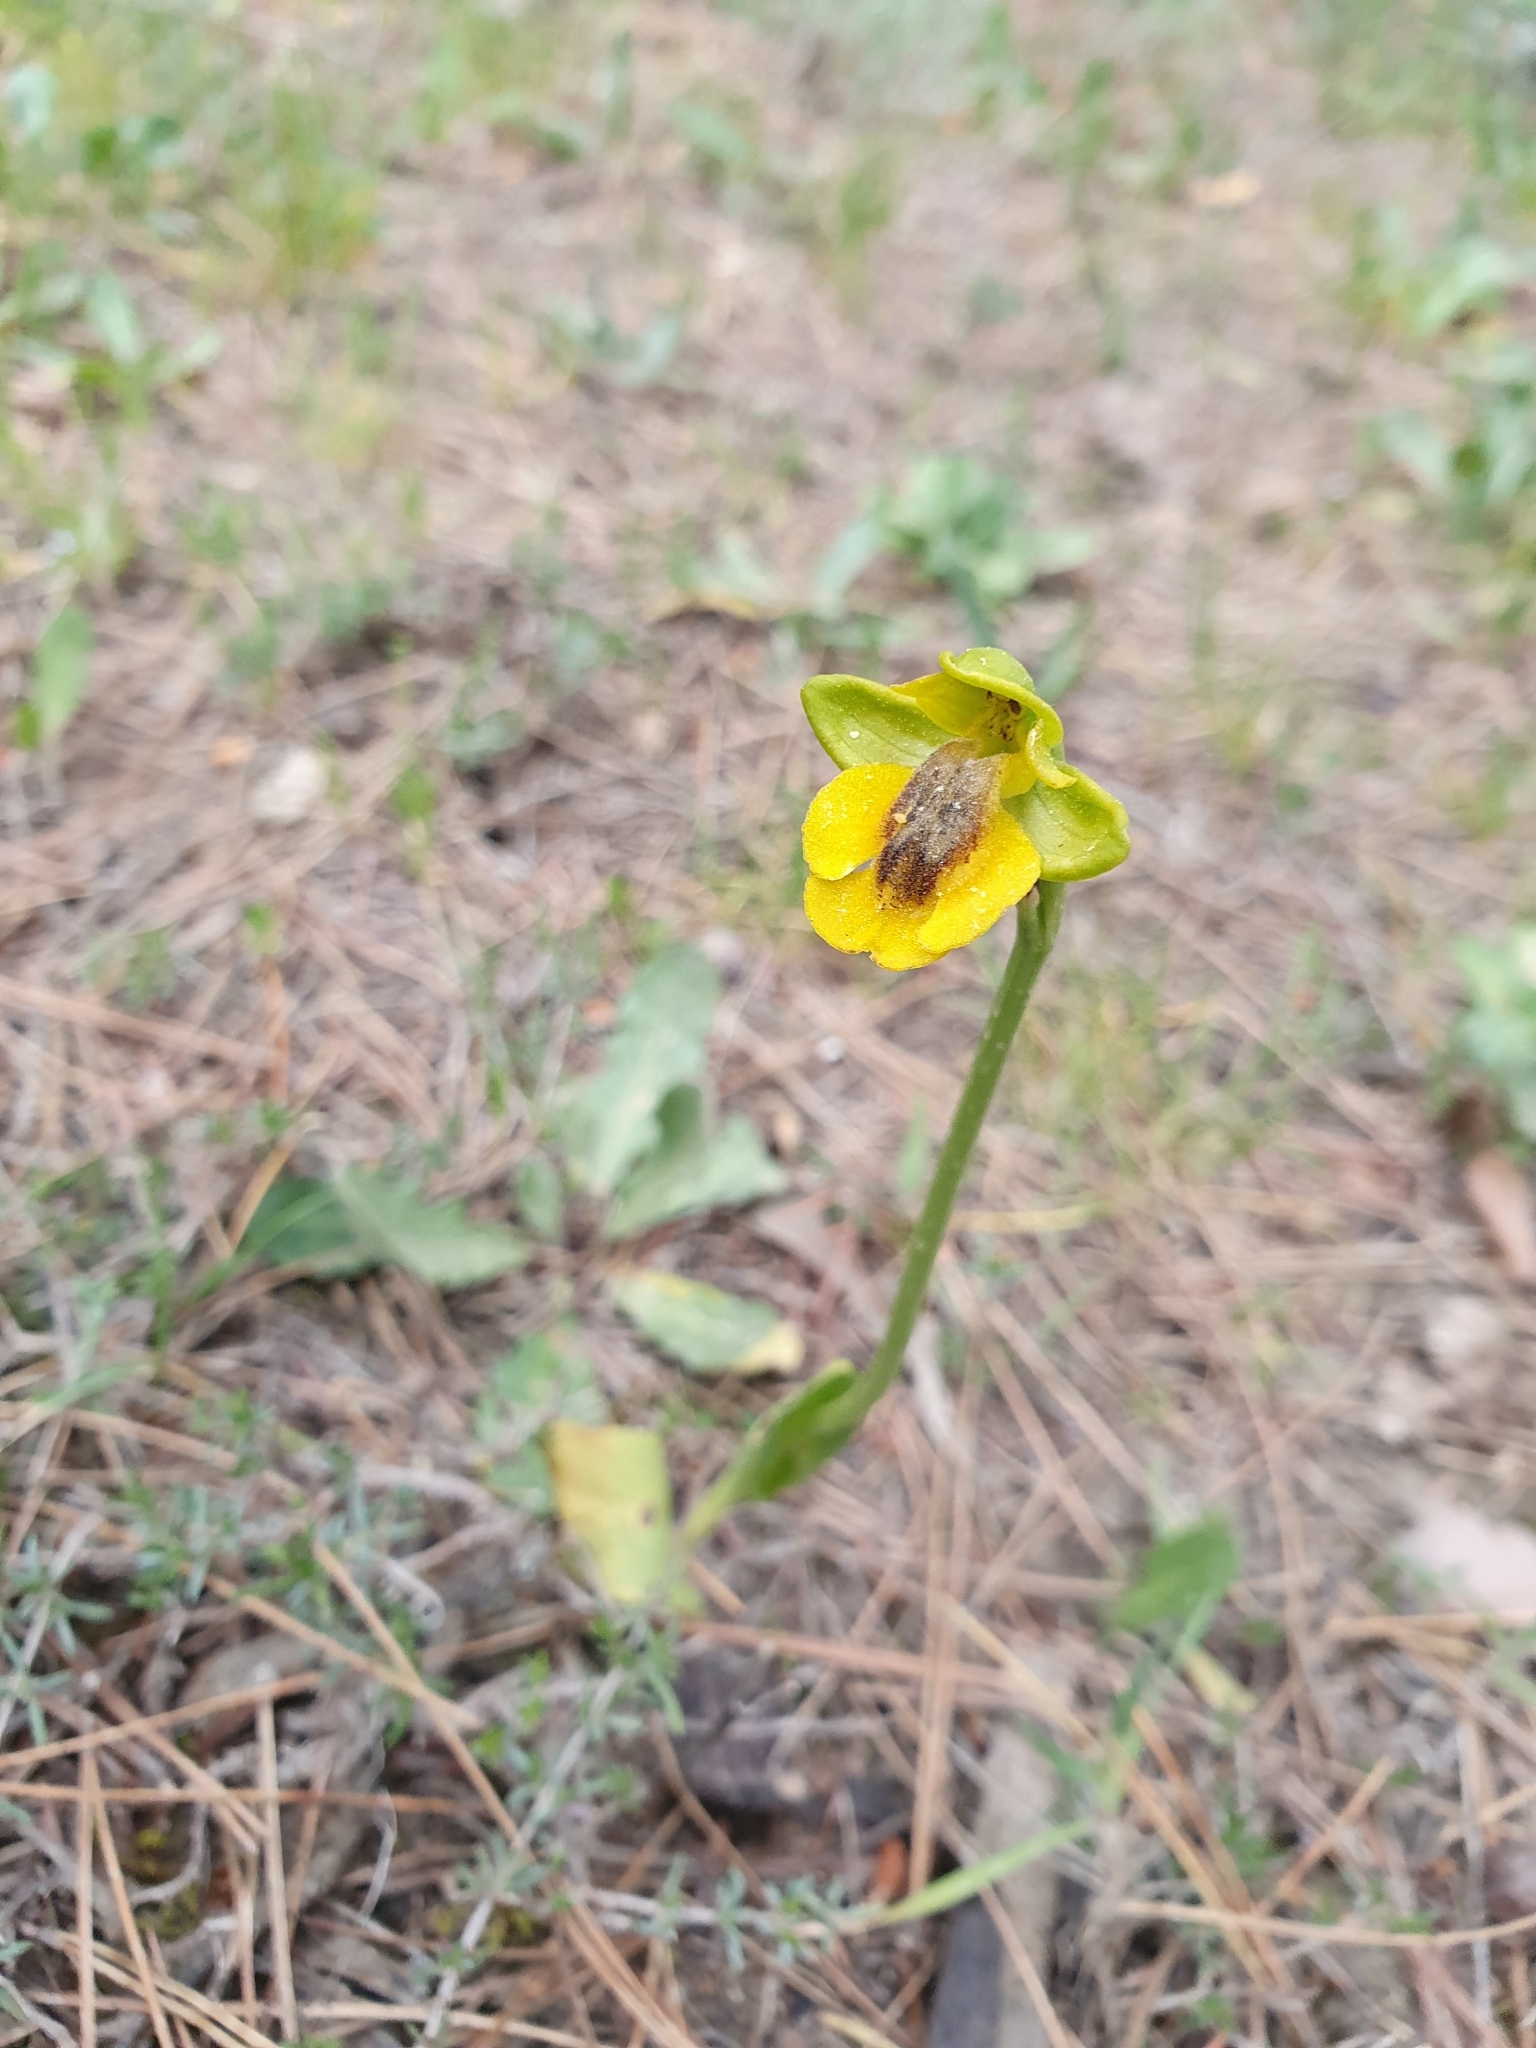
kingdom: Plantae
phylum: Tracheophyta
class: Liliopsida
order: Asparagales
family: Orchidaceae
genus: Ophrys
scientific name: Ophrys lutea
